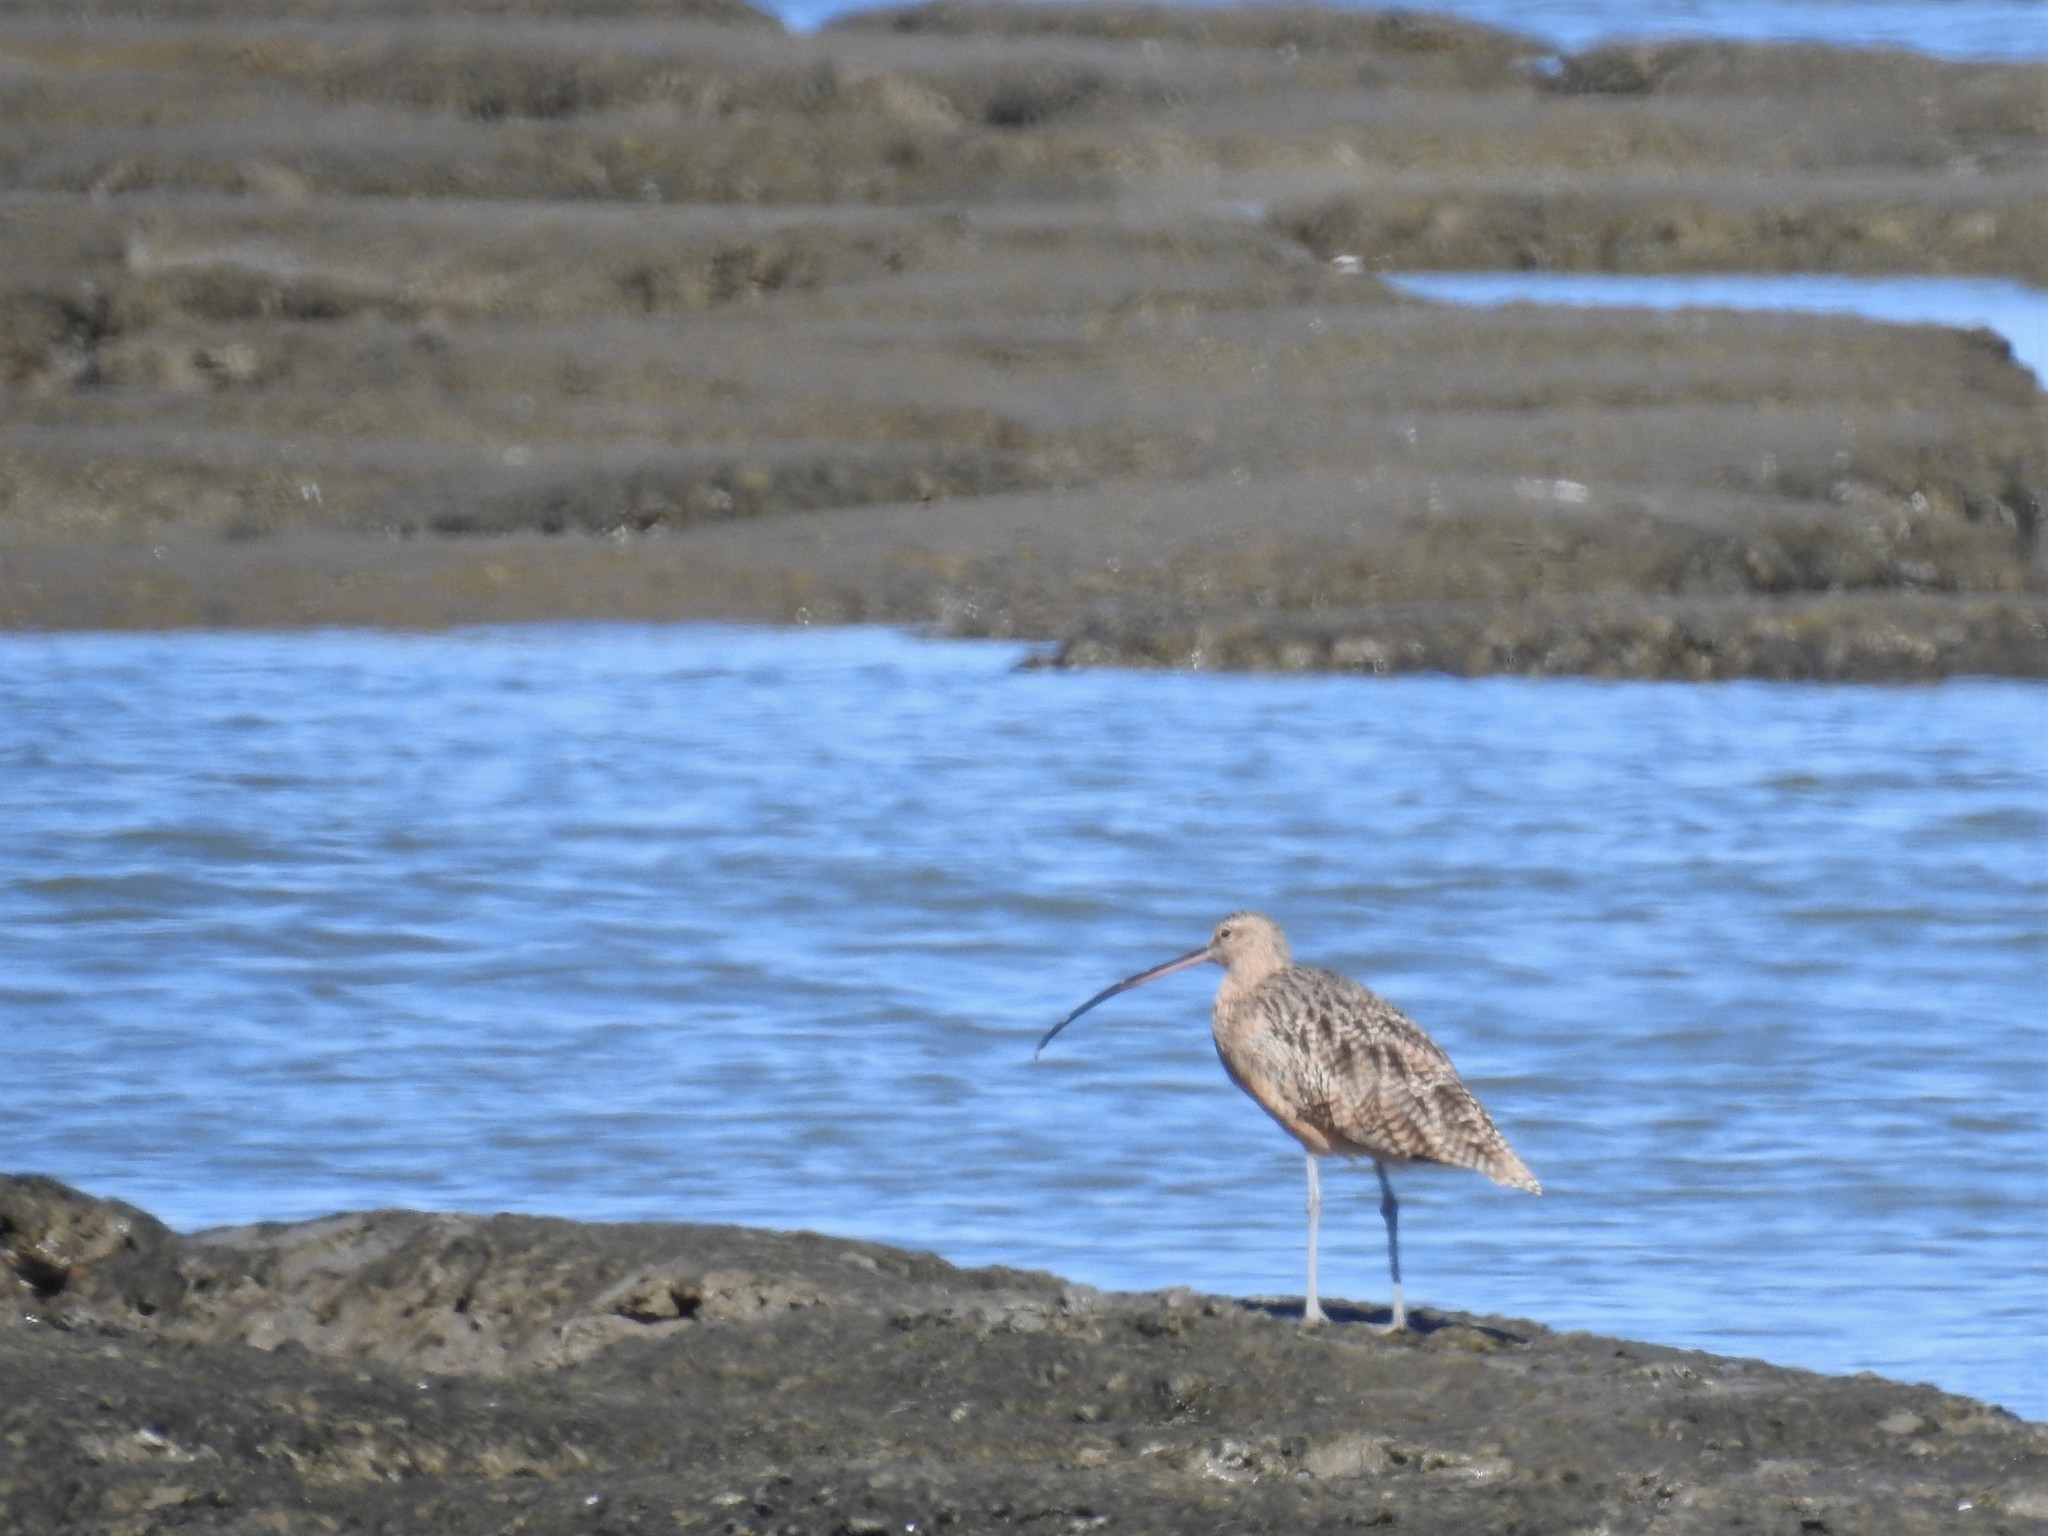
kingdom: Animalia
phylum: Chordata
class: Aves
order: Charadriiformes
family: Scolopacidae
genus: Numenius
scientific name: Numenius americanus
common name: Long-billed curlew
